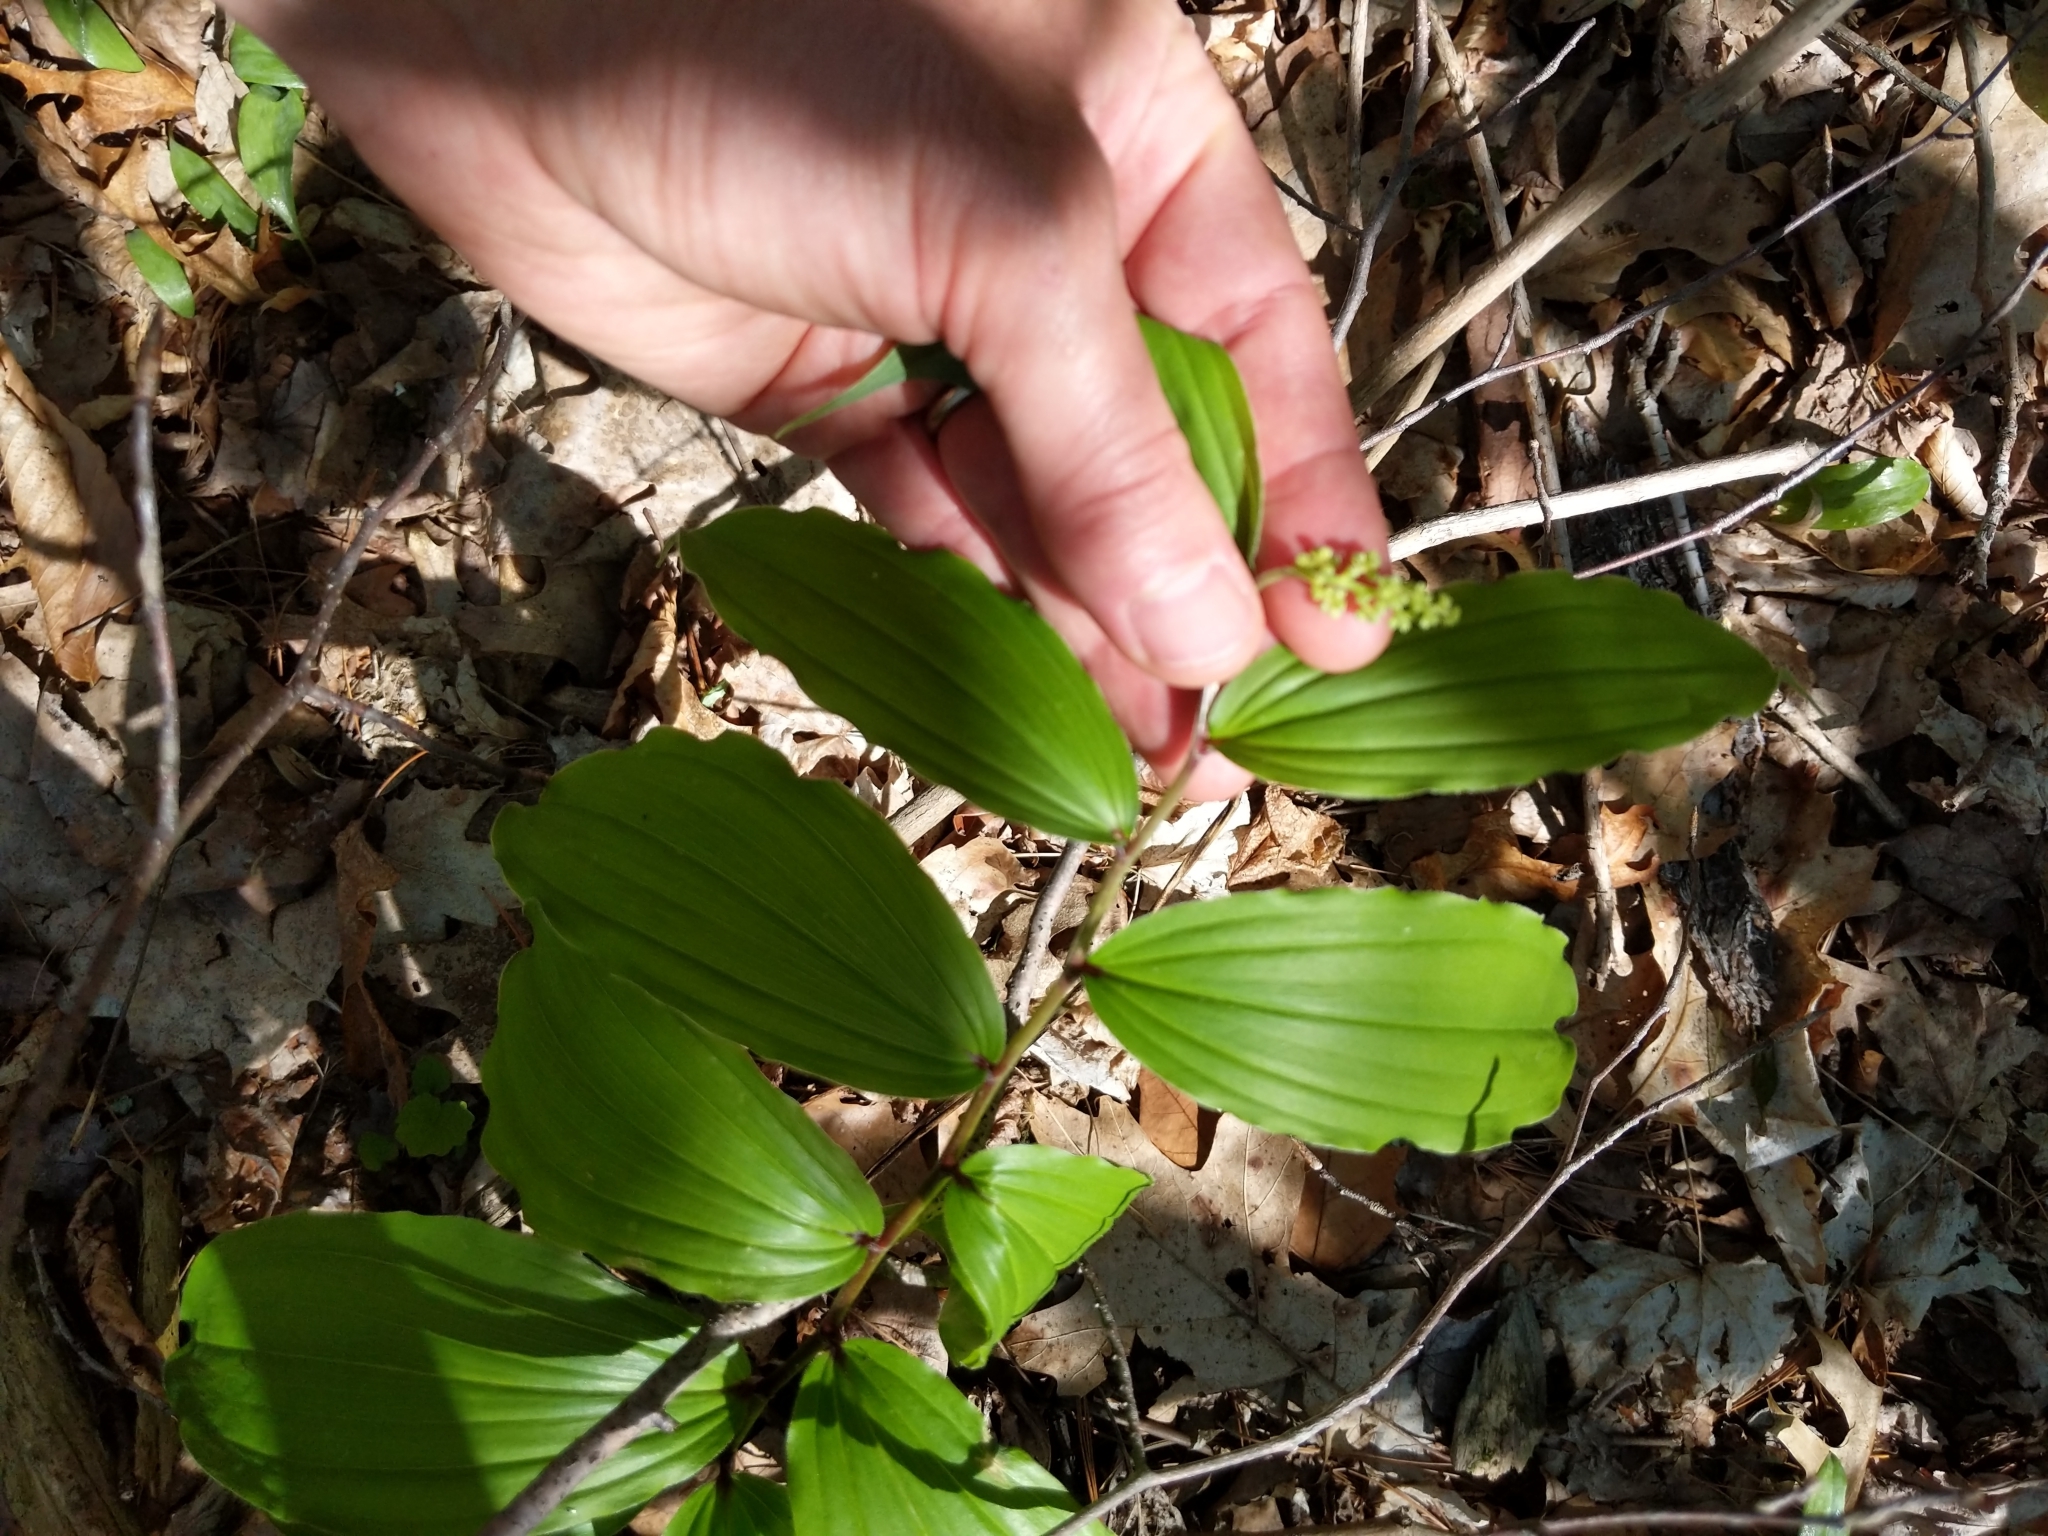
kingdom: Plantae
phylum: Tracheophyta
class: Liliopsida
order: Asparagales
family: Asparagaceae
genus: Maianthemum
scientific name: Maianthemum racemosum
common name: False spikenard
